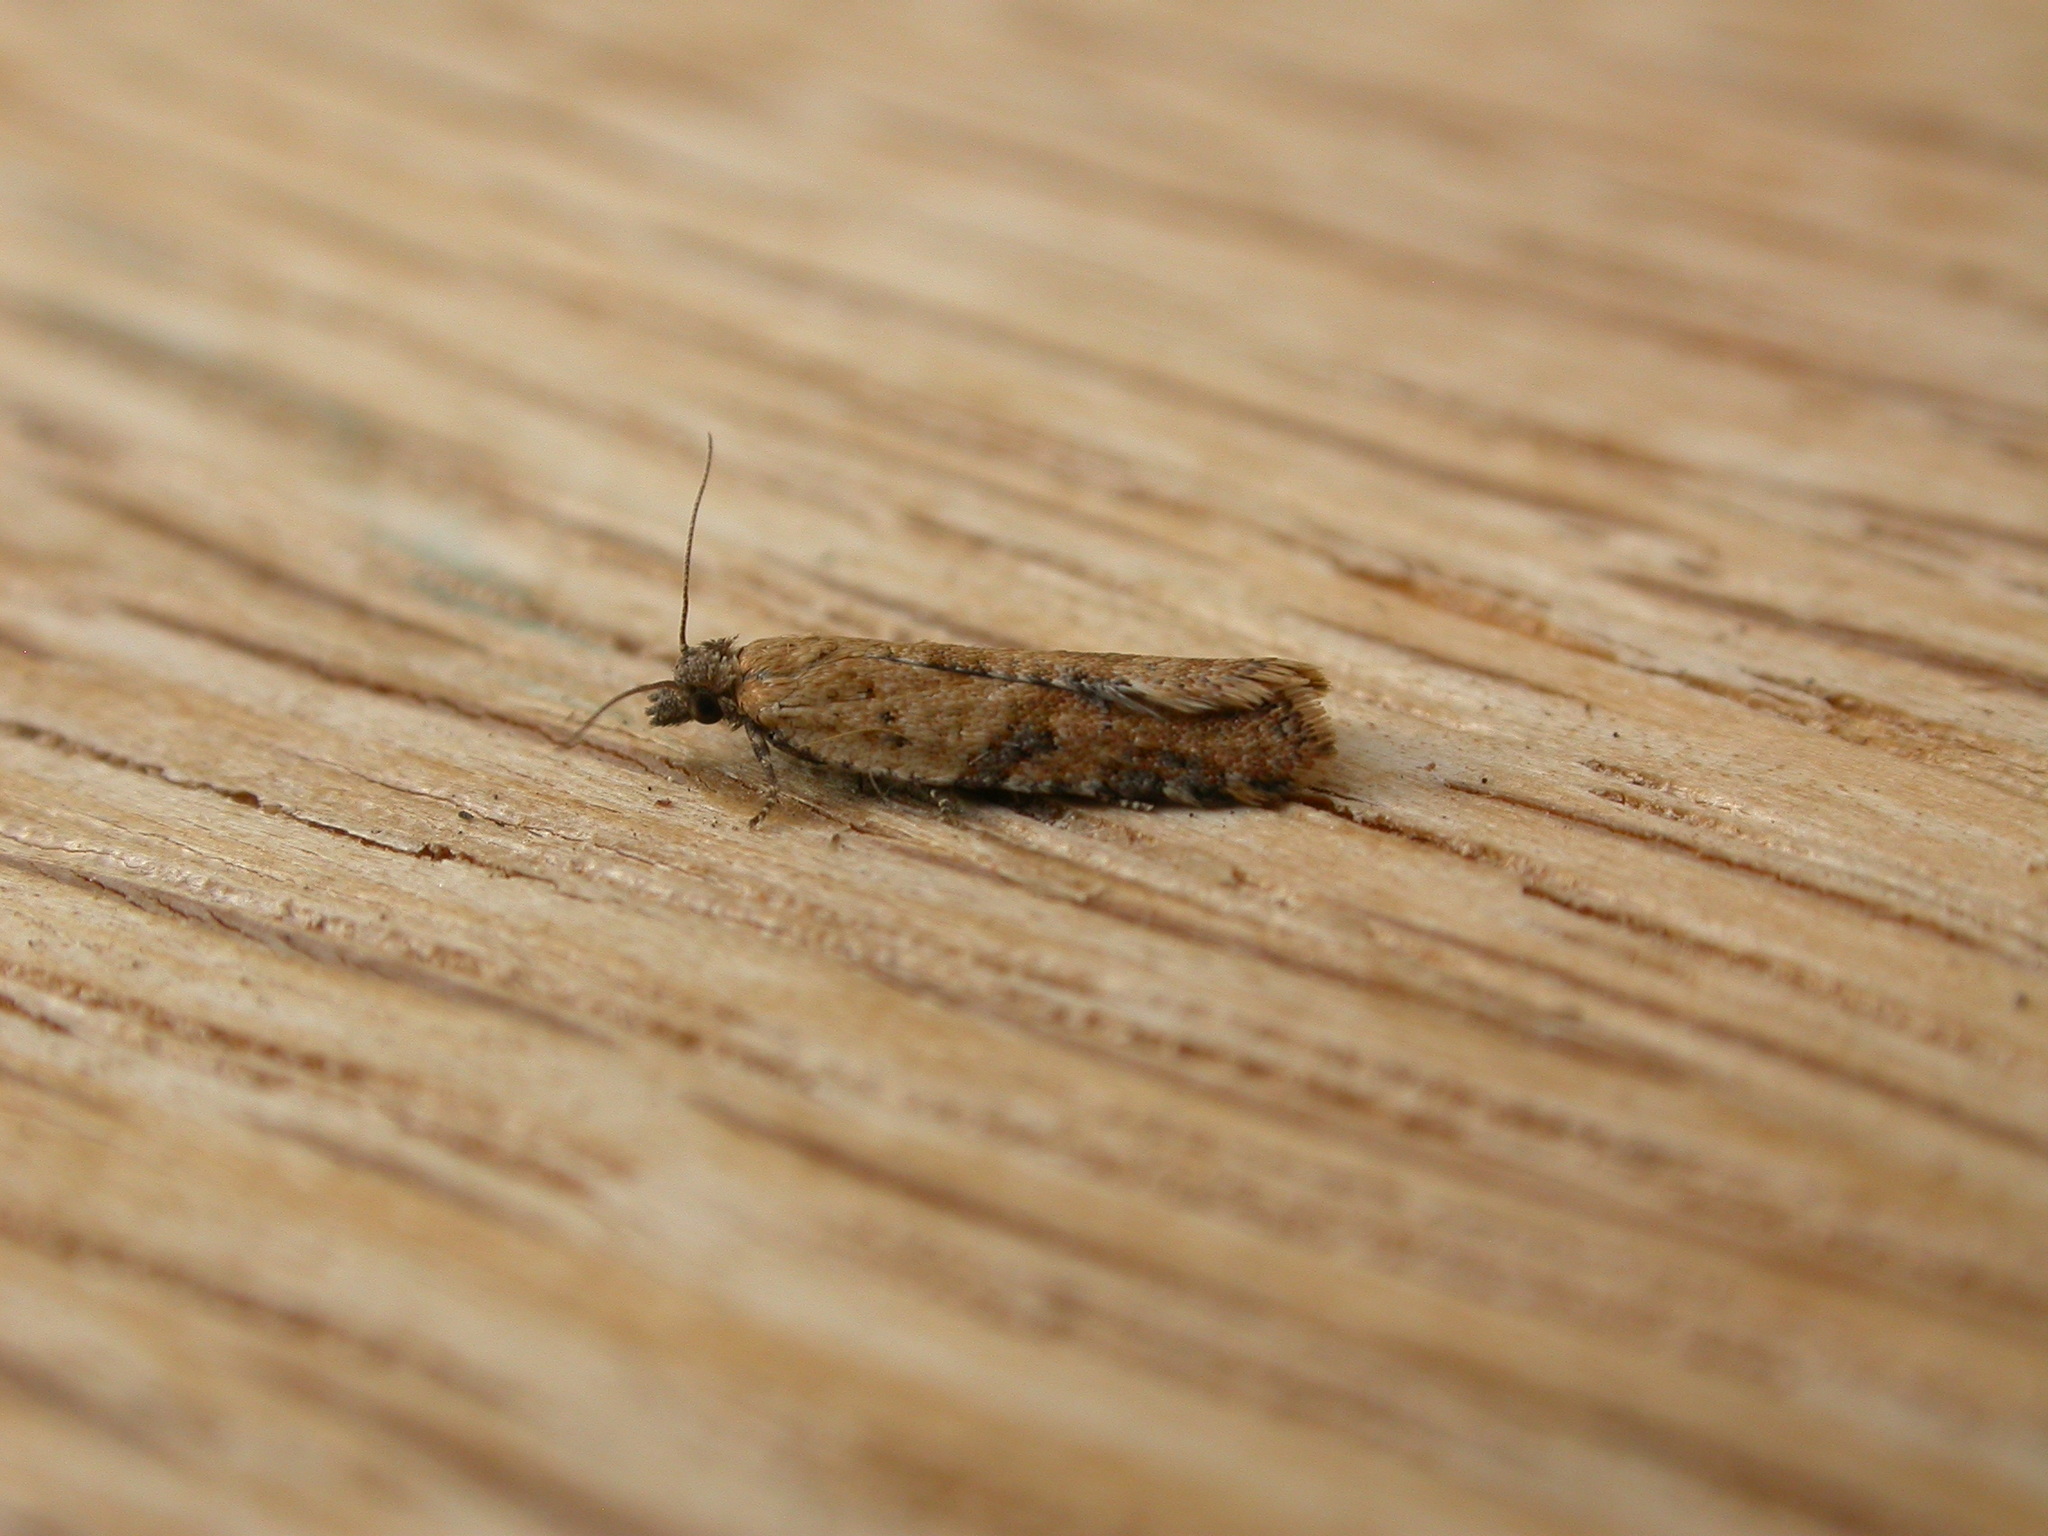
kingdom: Animalia
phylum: Arthropoda
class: Insecta
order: Lepidoptera
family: Tortricidae
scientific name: Tortricidae
